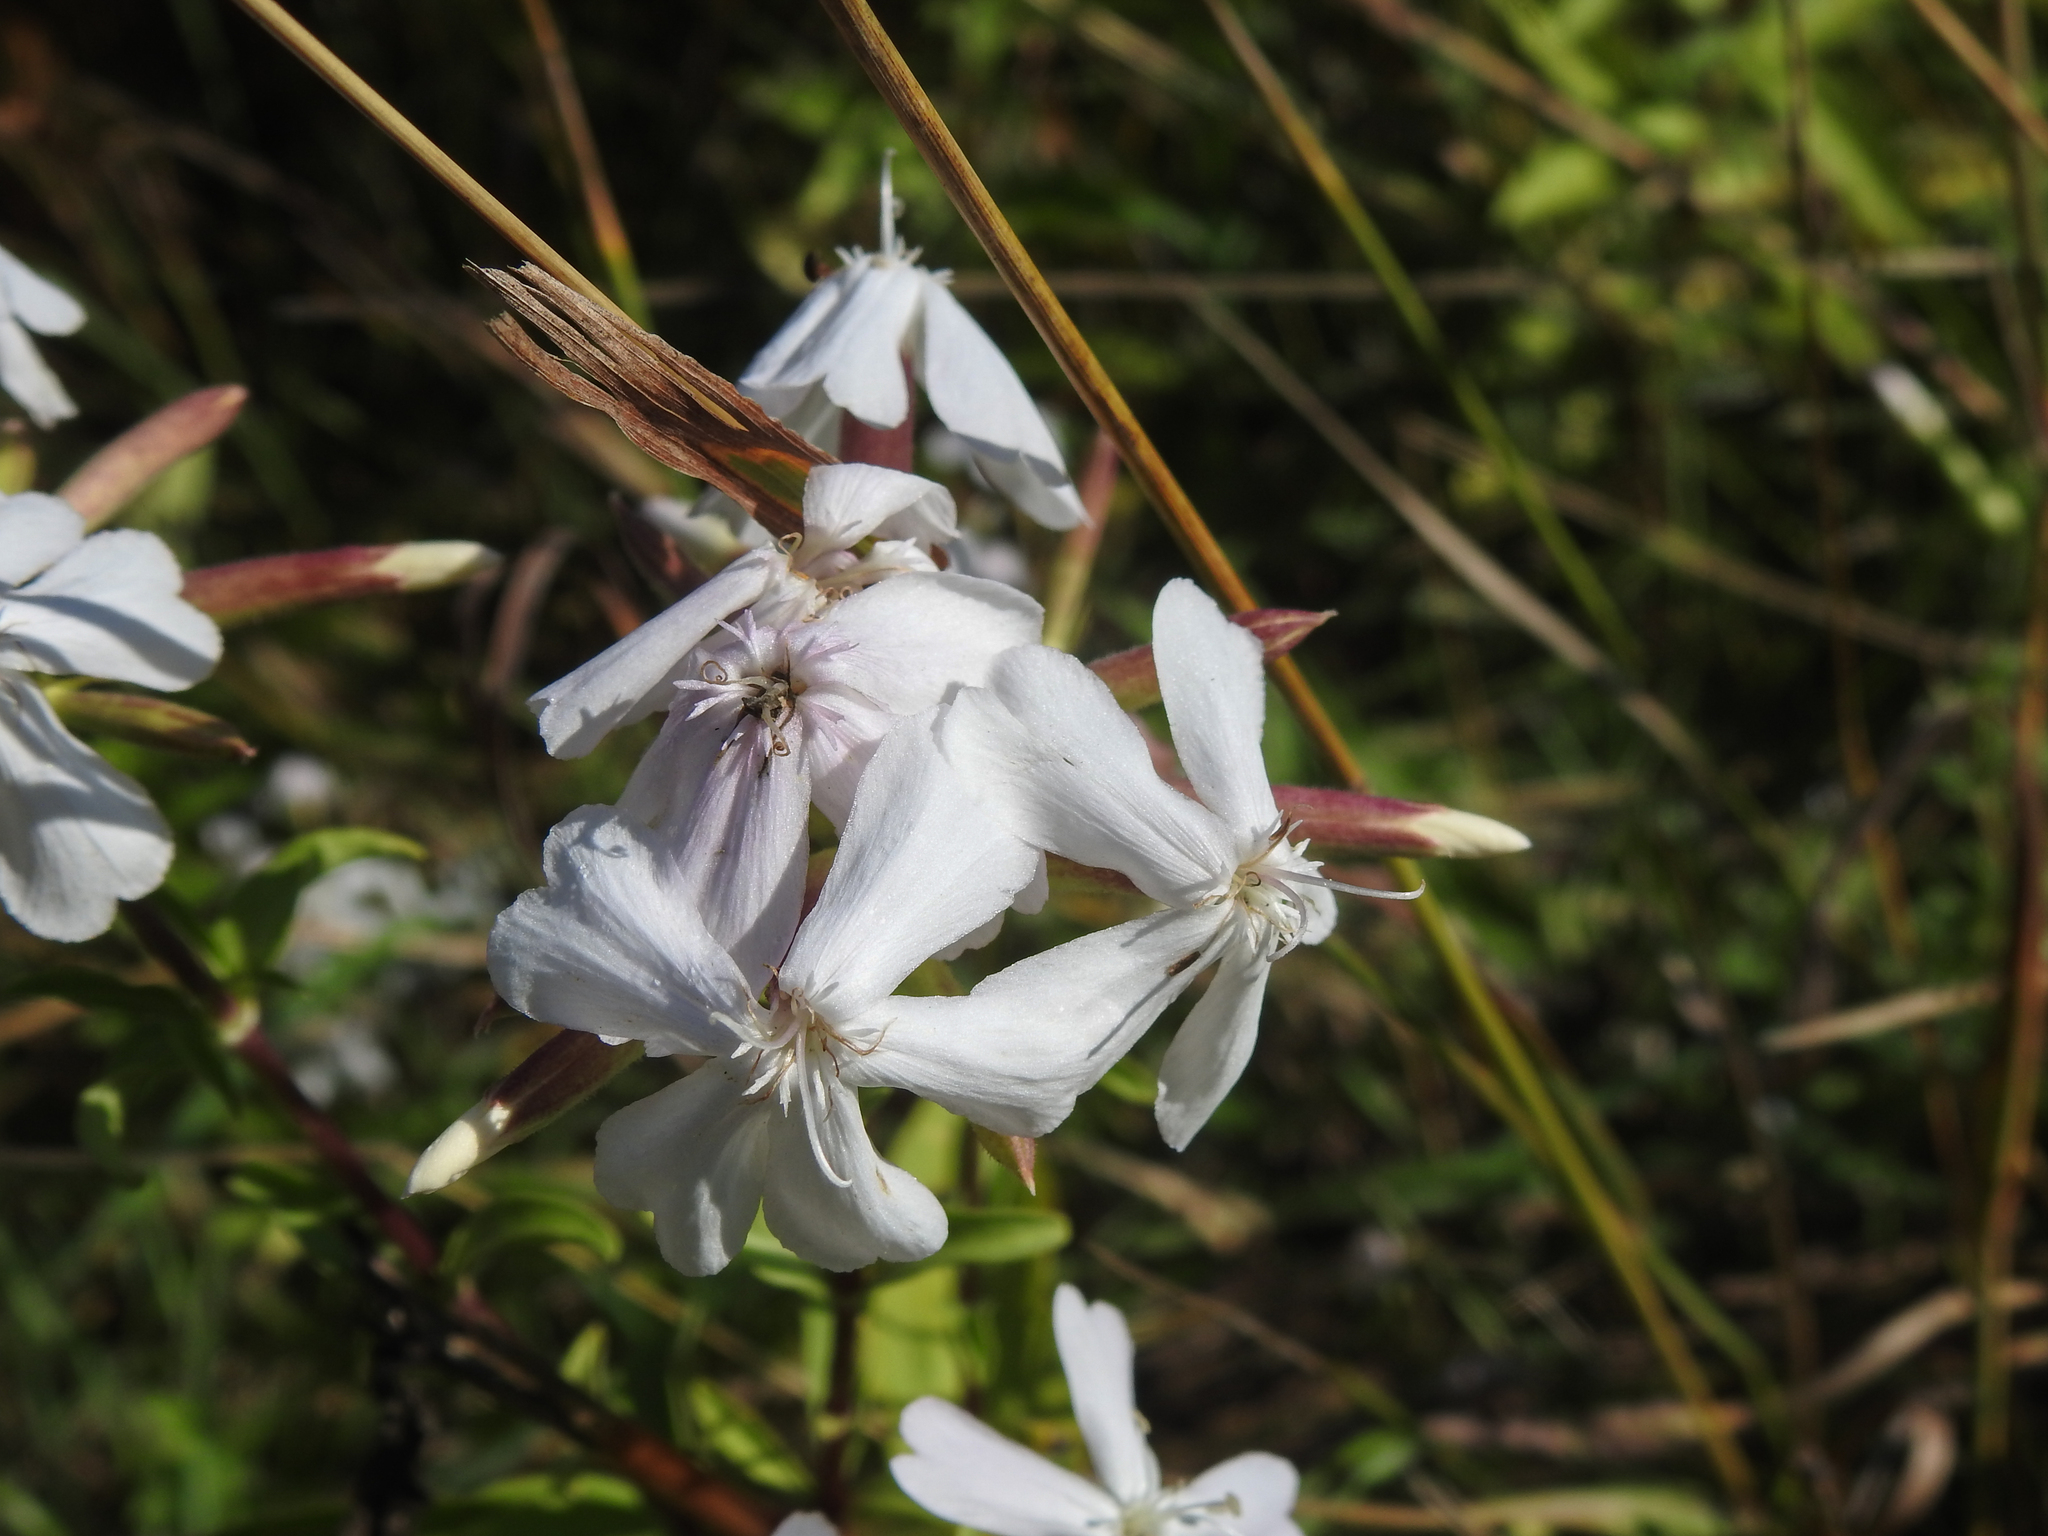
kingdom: Plantae
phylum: Tracheophyta
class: Magnoliopsida
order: Caryophyllales
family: Caryophyllaceae
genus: Saponaria
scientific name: Saponaria officinalis
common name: Soapwort
